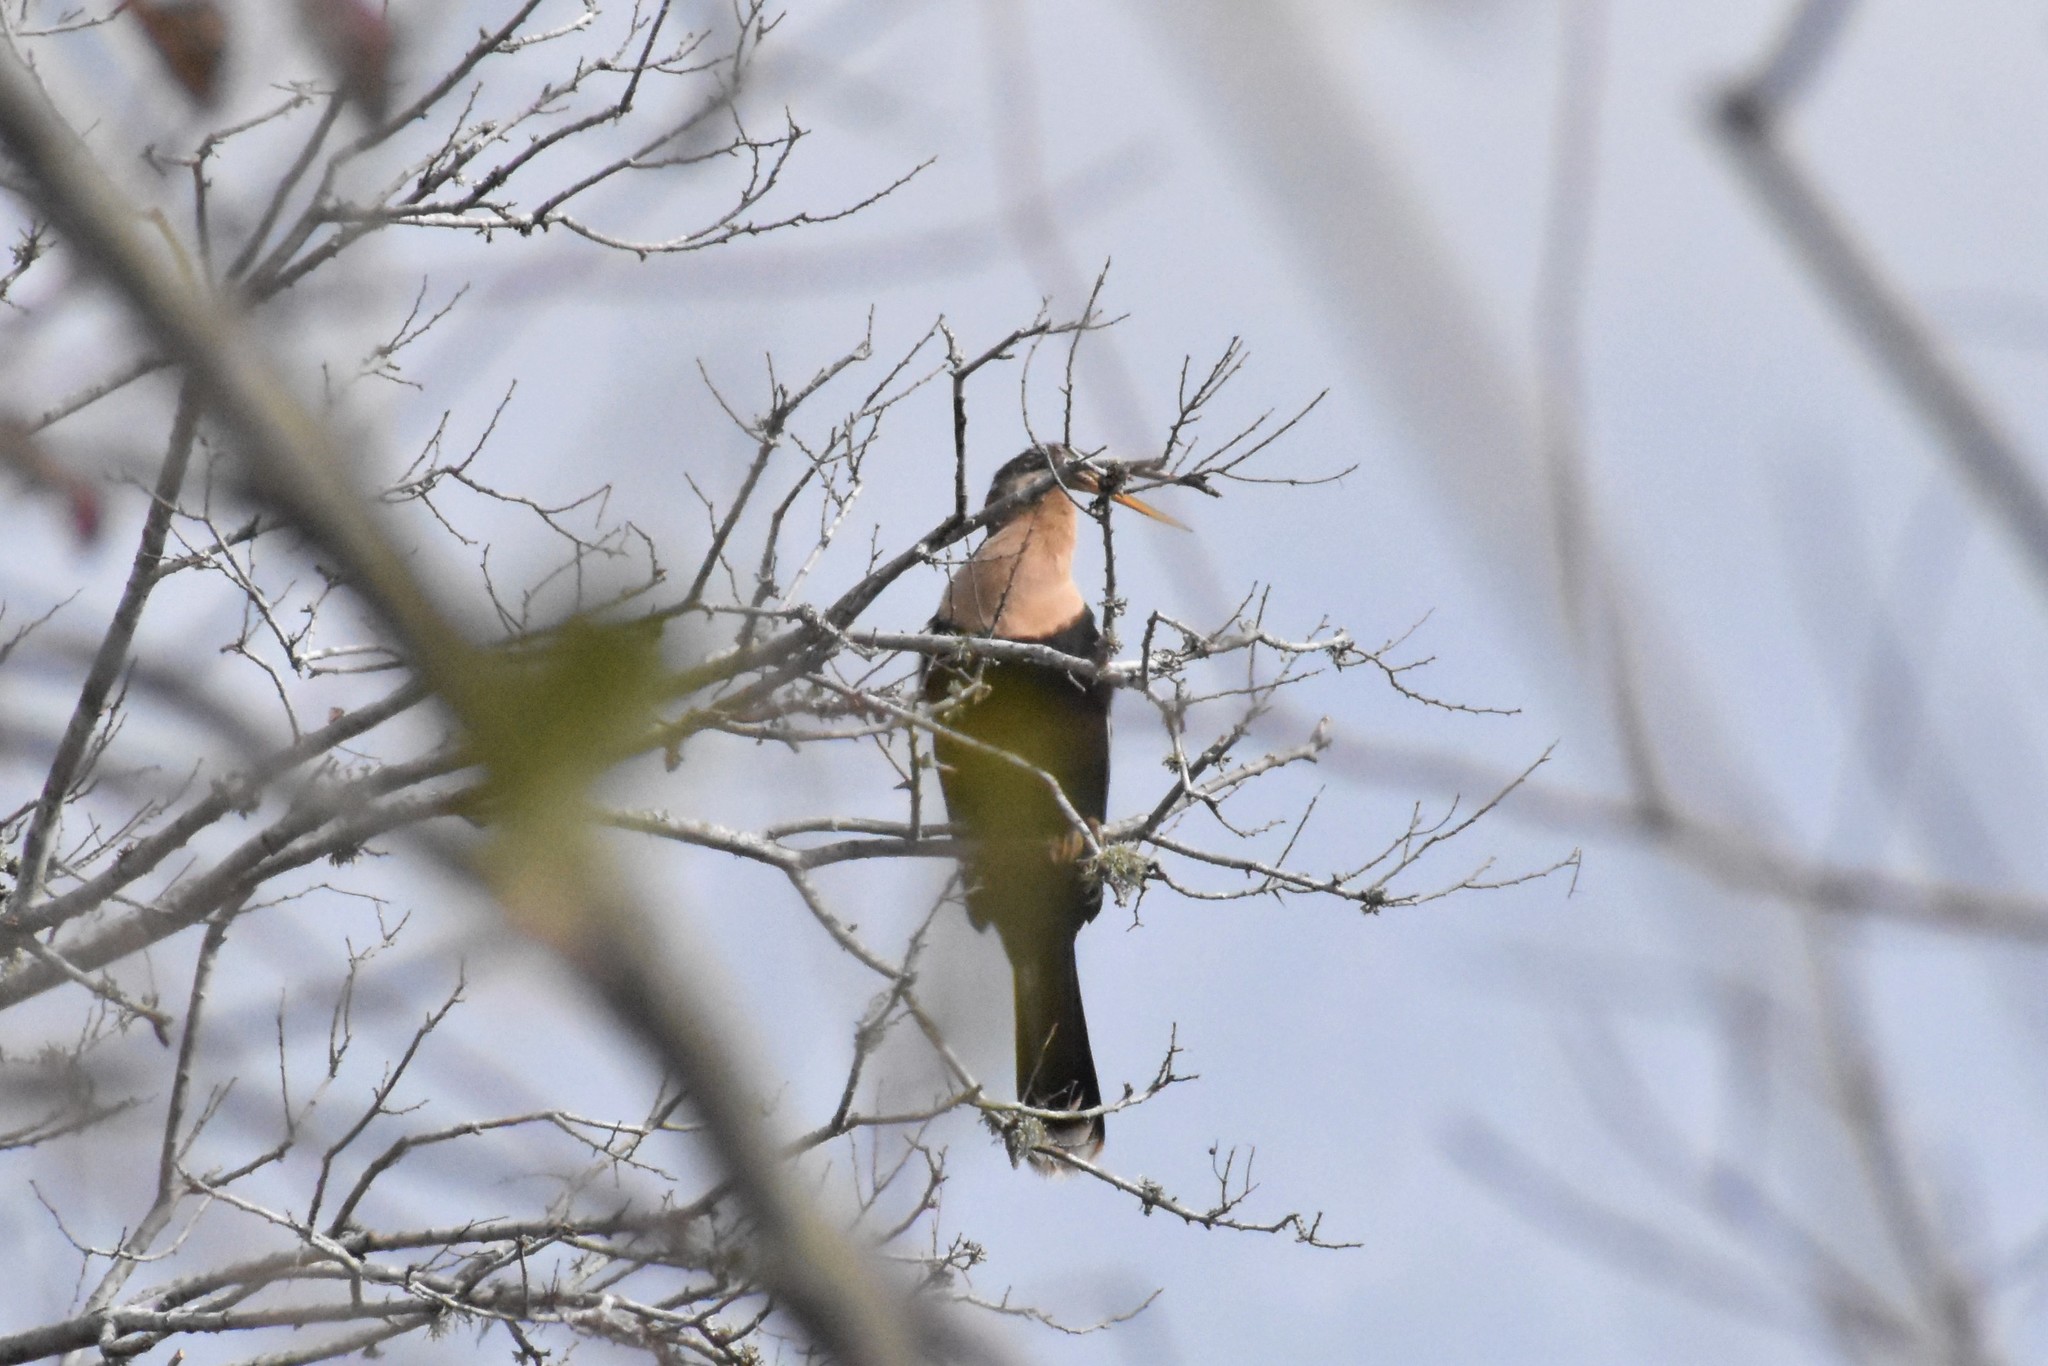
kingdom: Animalia
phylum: Chordata
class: Aves
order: Suliformes
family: Anhingidae
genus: Anhinga
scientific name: Anhinga anhinga
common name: Anhinga
